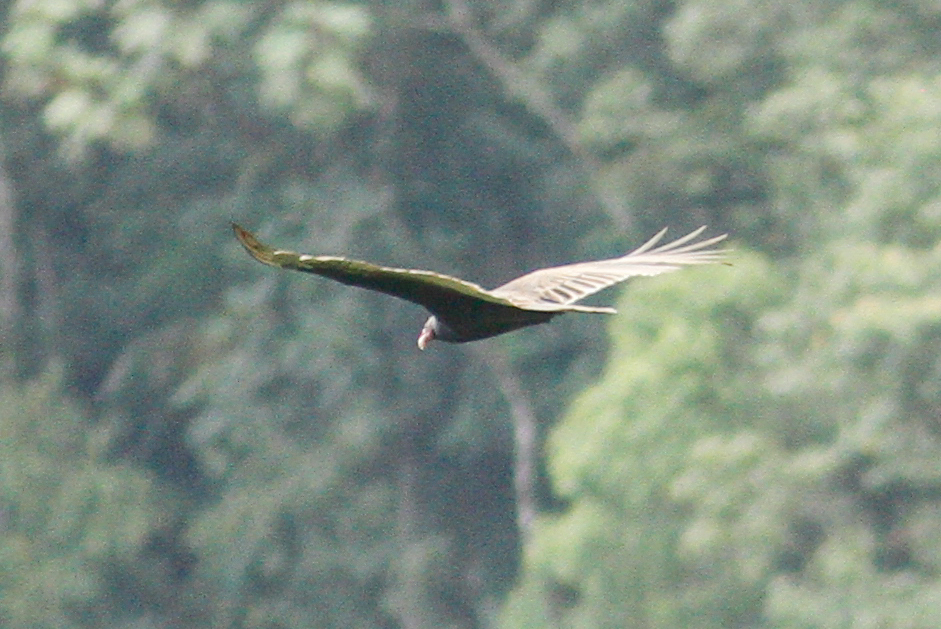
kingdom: Animalia
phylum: Chordata
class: Aves
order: Accipitriformes
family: Cathartidae
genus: Cathartes
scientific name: Cathartes aura
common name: Turkey vulture
